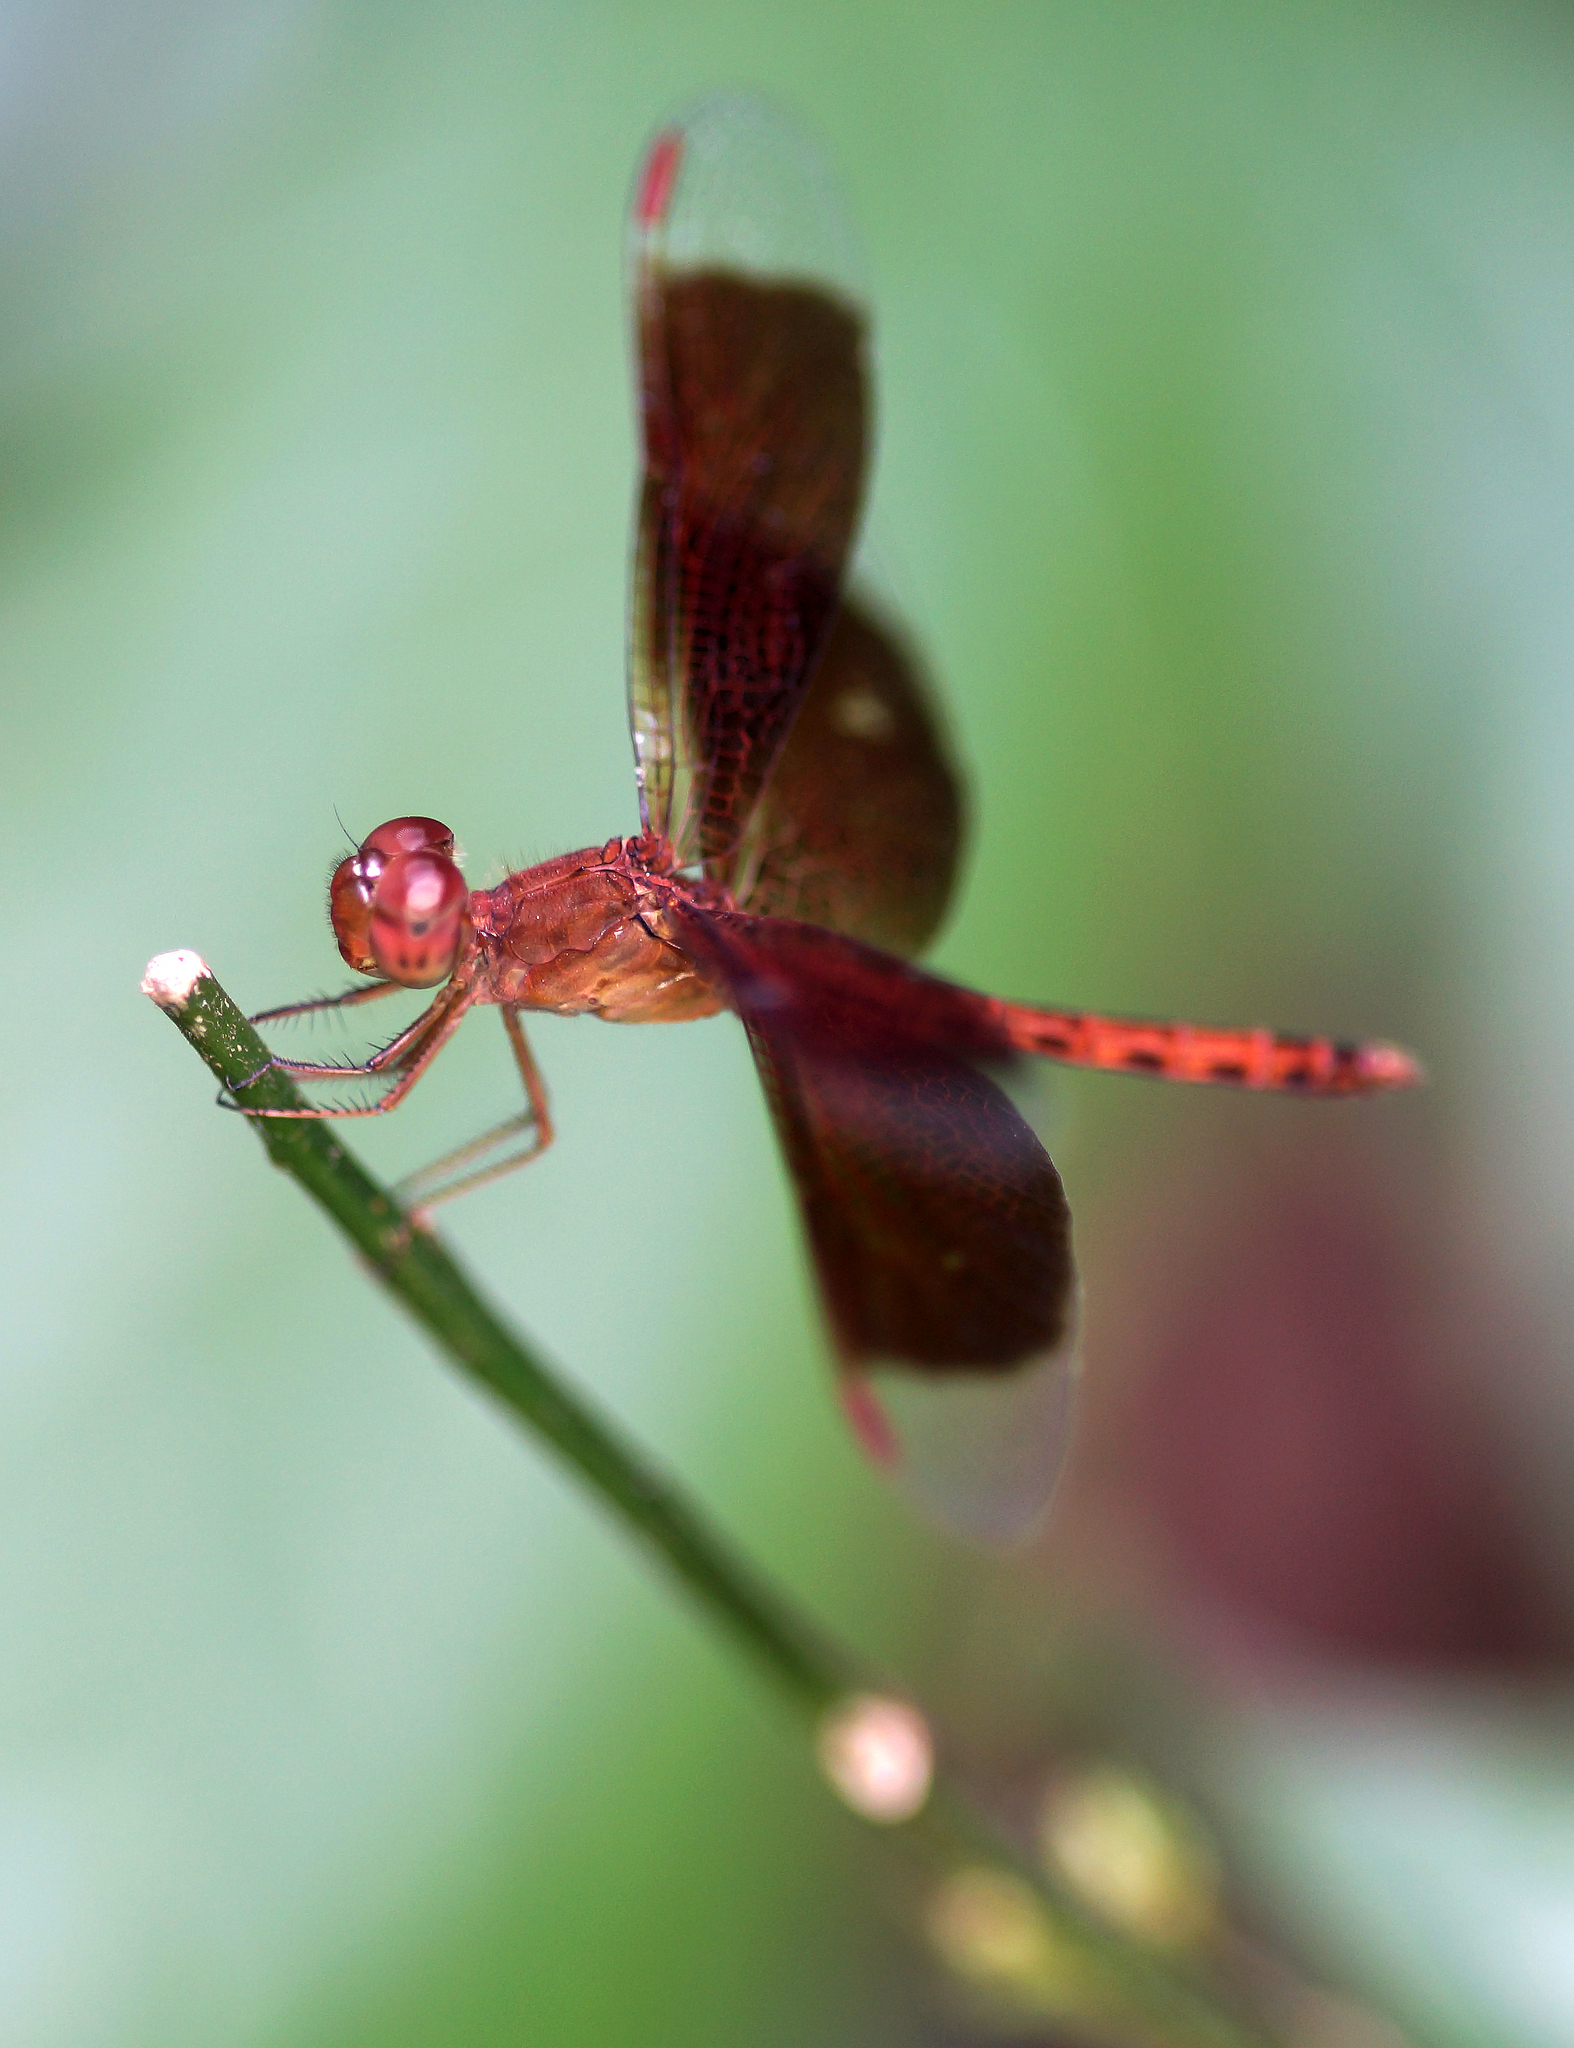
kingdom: Animalia
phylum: Arthropoda
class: Insecta
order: Odonata
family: Libellulidae
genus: Neurothemis
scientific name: Neurothemis fluctuans
